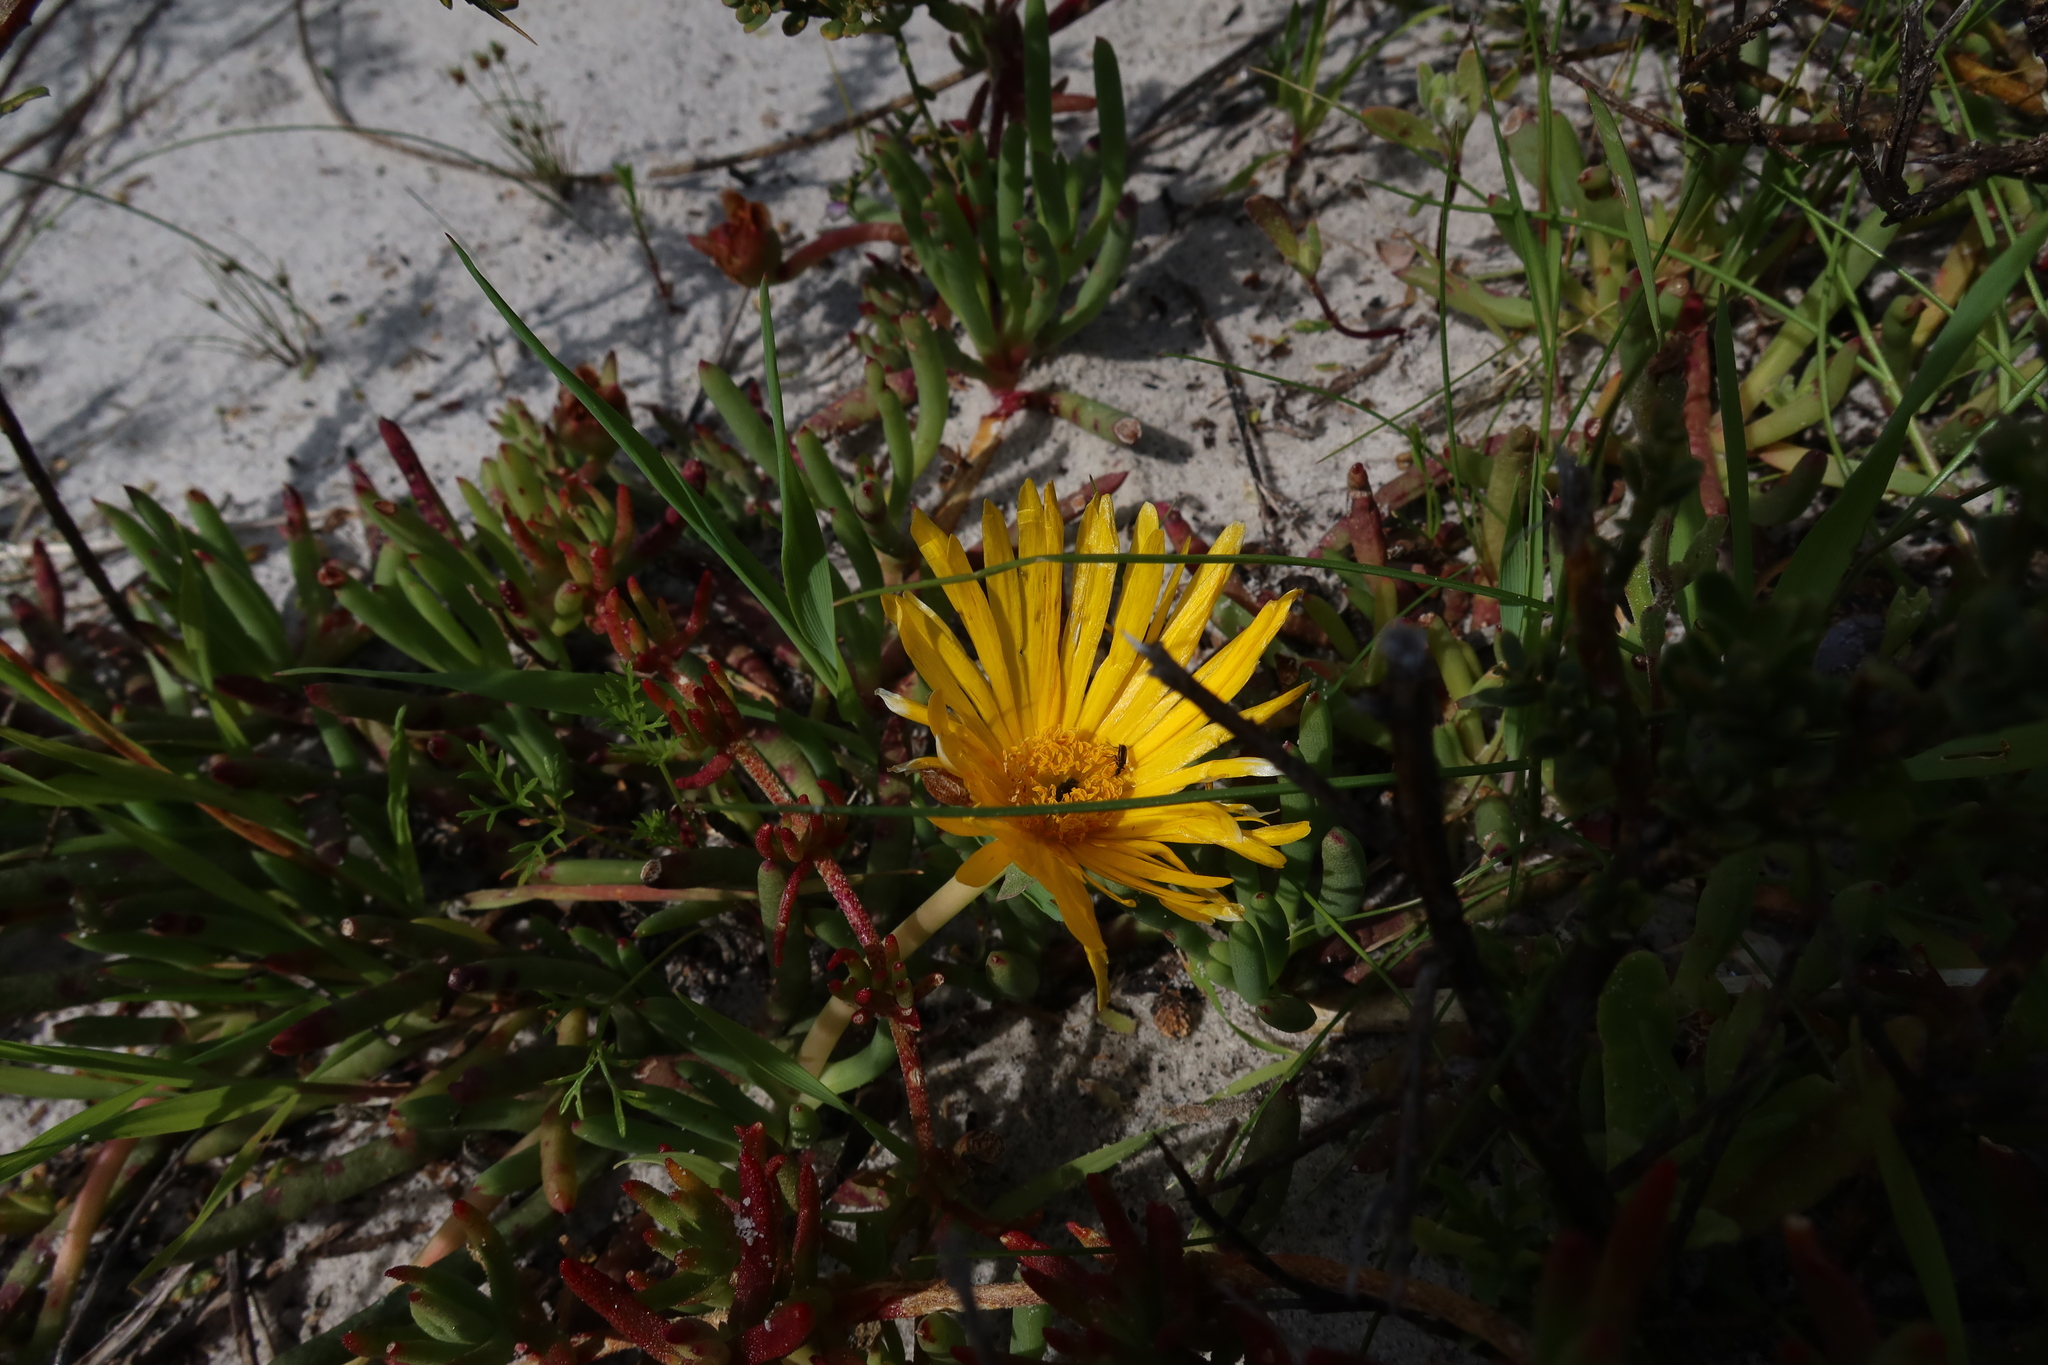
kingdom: Plantae
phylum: Tracheophyta
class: Magnoliopsida
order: Caryophyllales
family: Aizoaceae
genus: Jordaaniella
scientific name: Jordaaniella dubia
